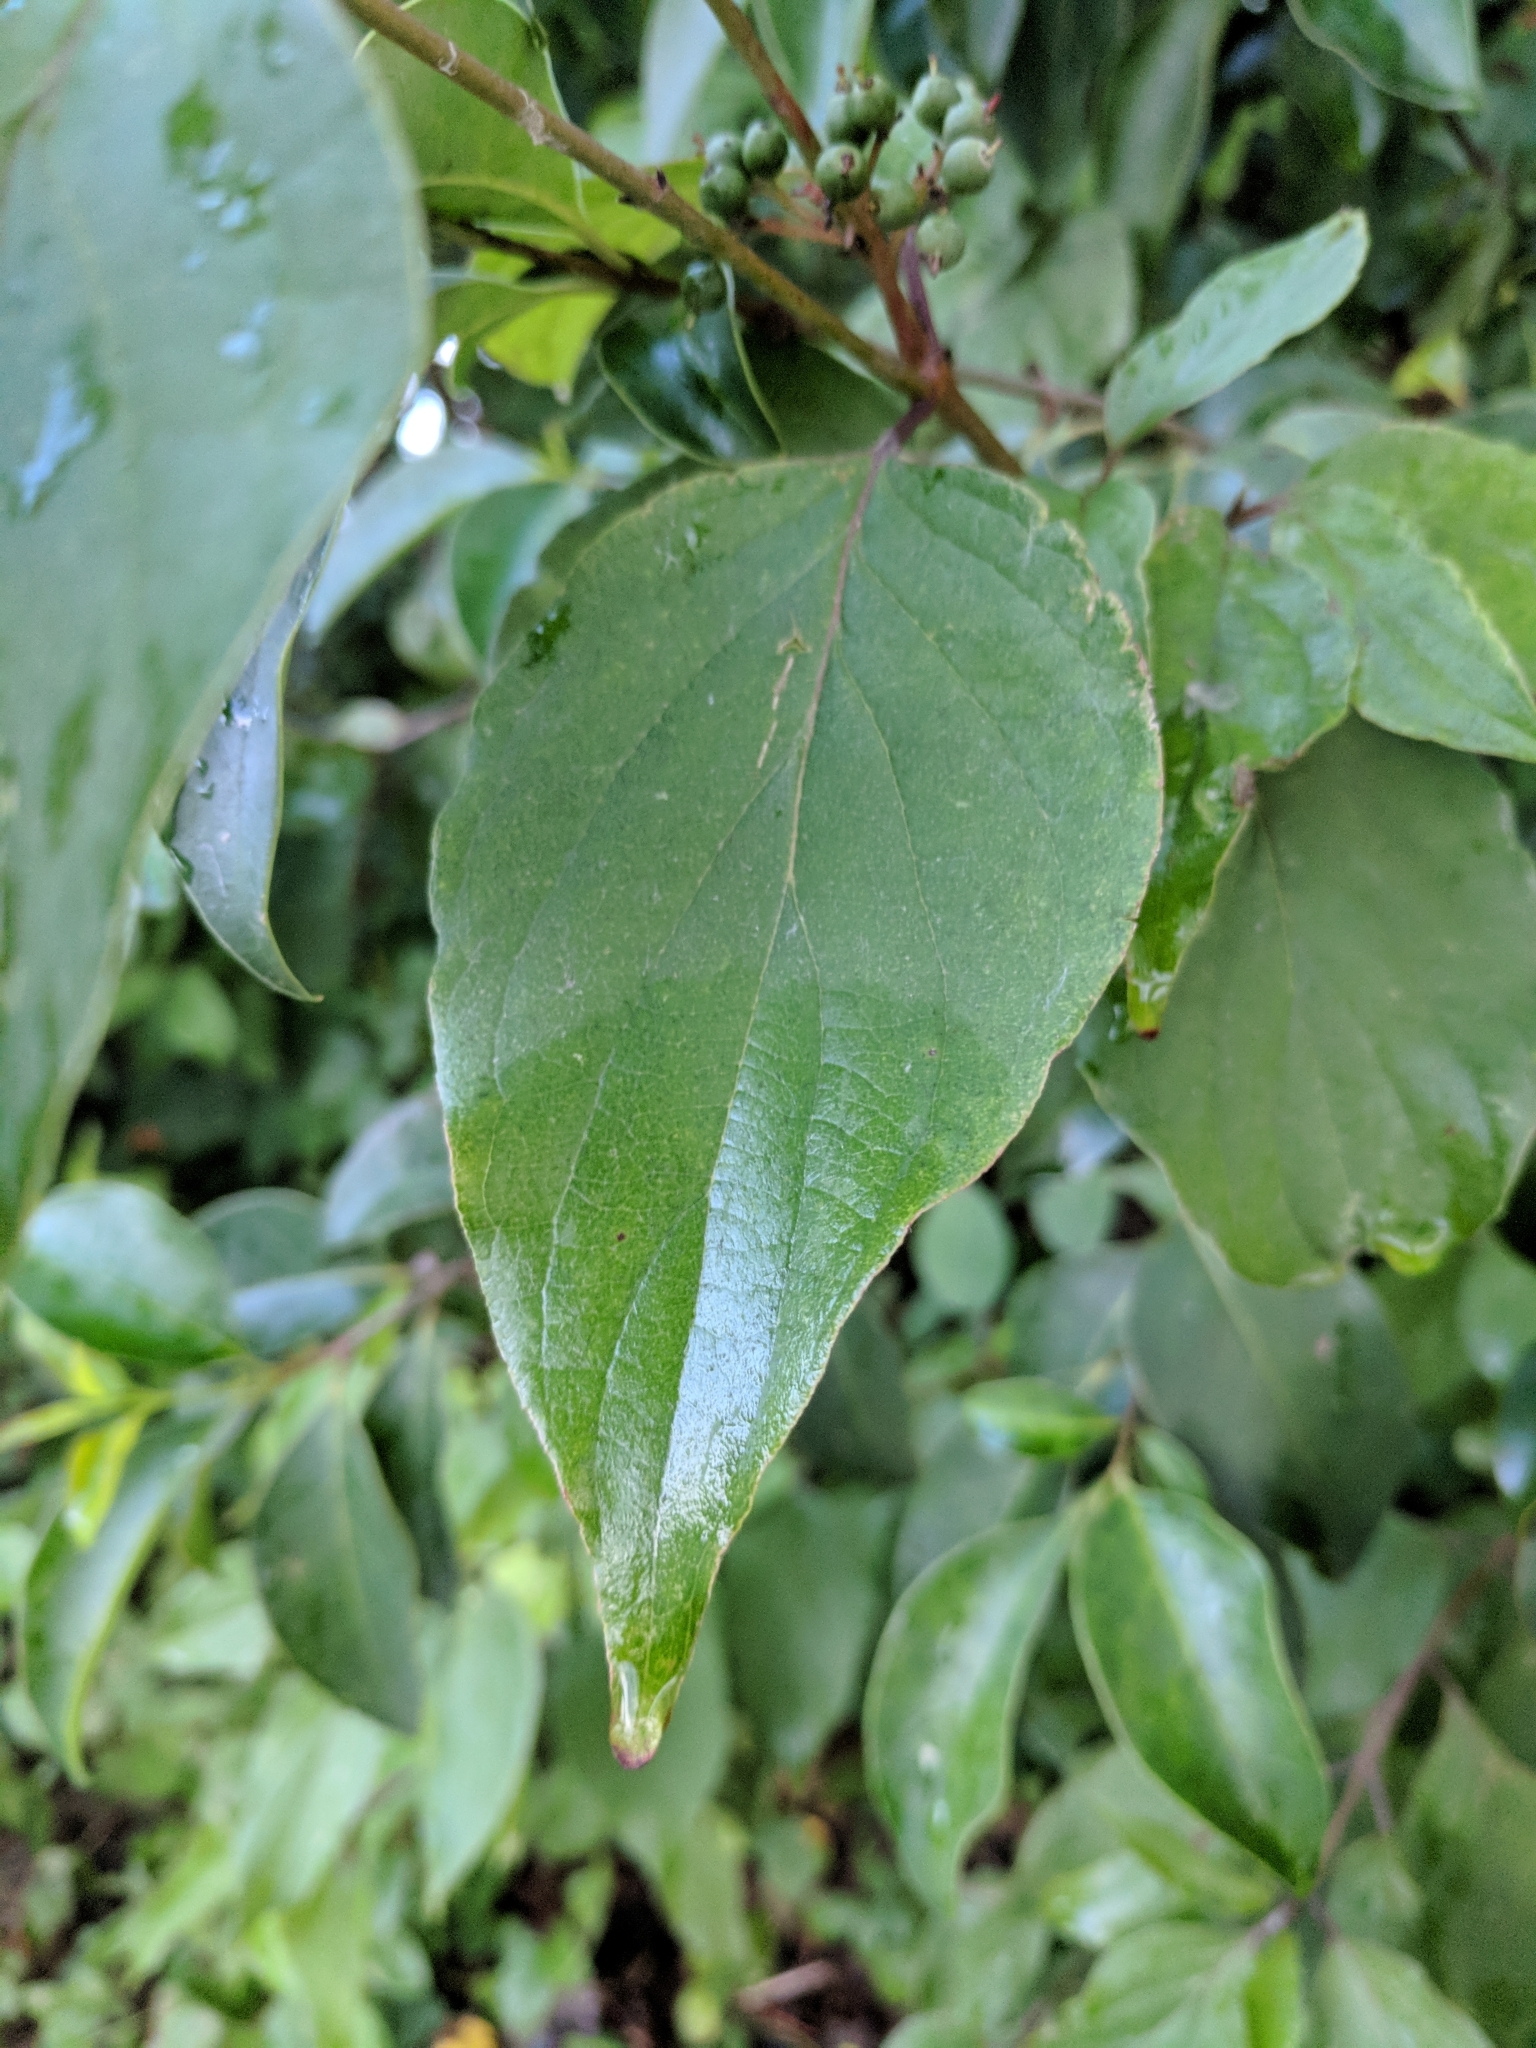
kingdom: Plantae
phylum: Tracheophyta
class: Magnoliopsida
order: Cornales
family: Cornaceae
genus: Cornus
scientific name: Cornus drummondii
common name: Rough-leaf dogwood
